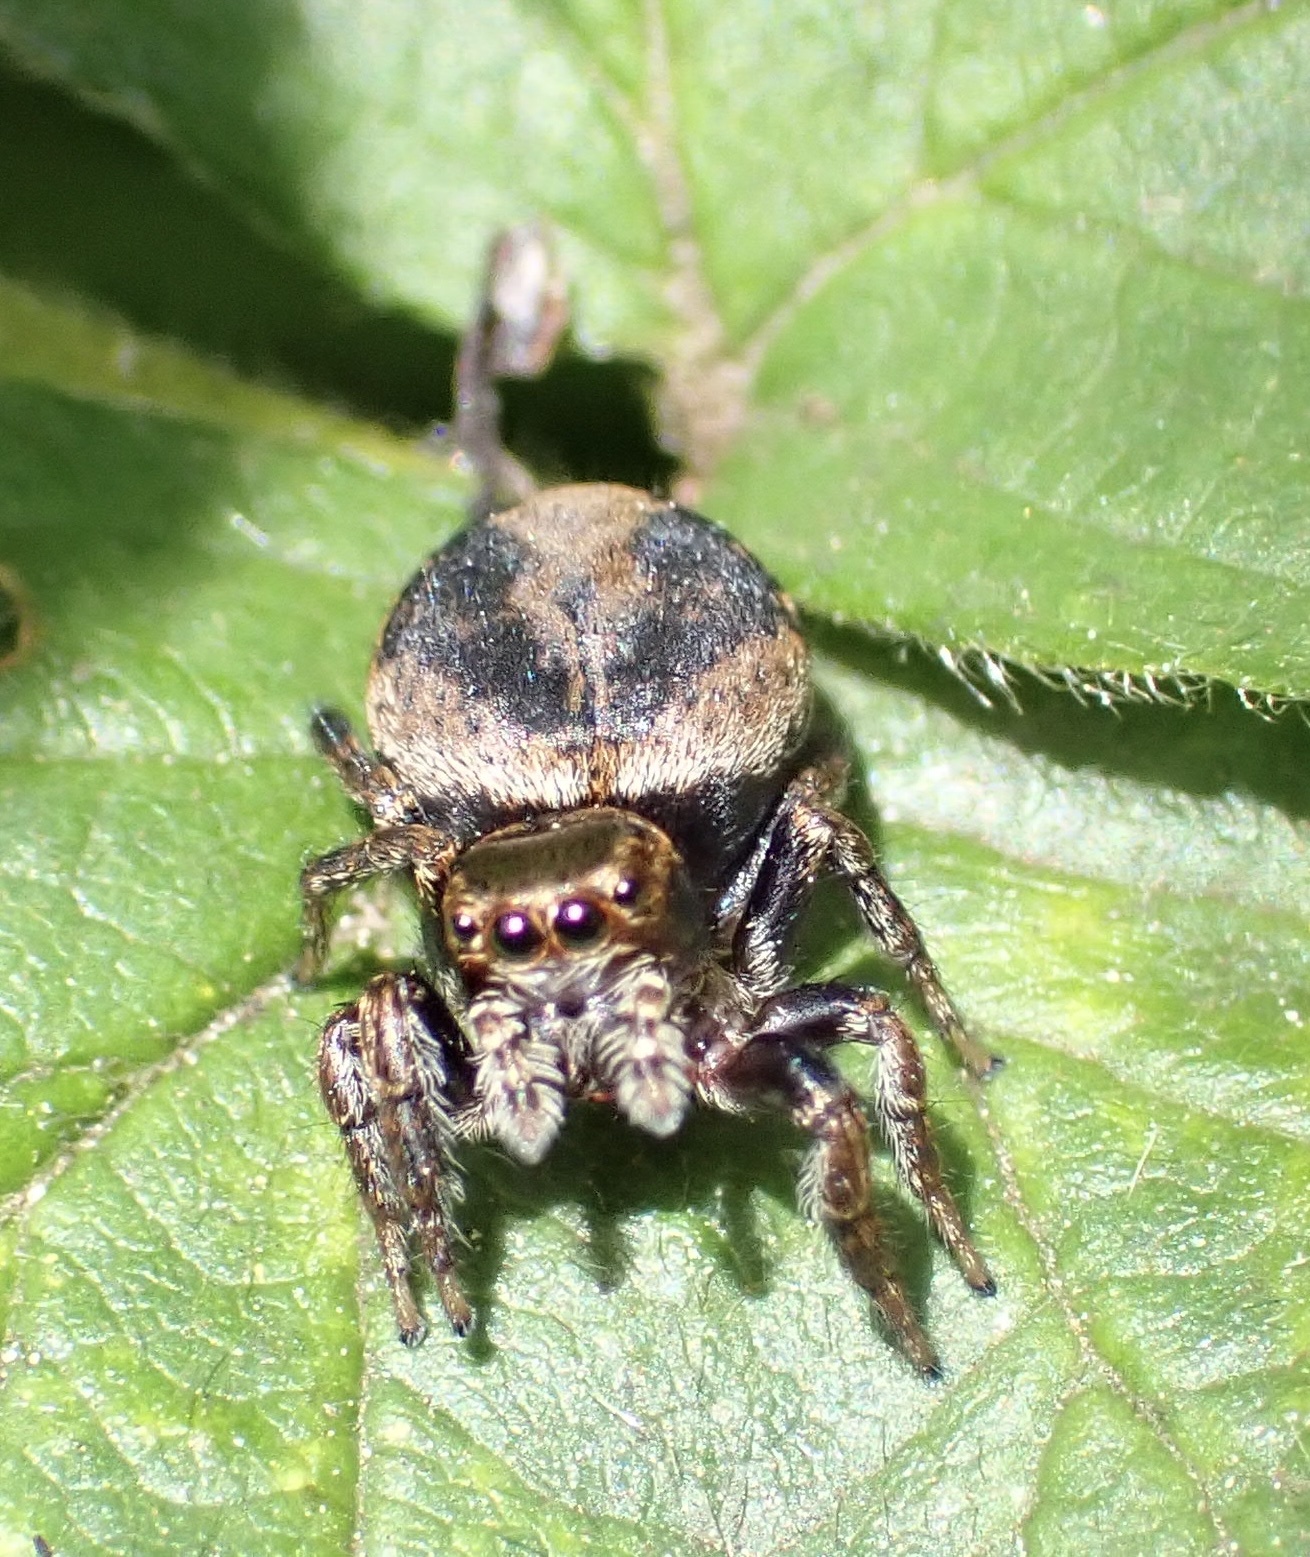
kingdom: Animalia
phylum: Arthropoda
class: Arachnida
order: Araneae
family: Salticidae
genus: Evarcha
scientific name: Evarcha arcuata
